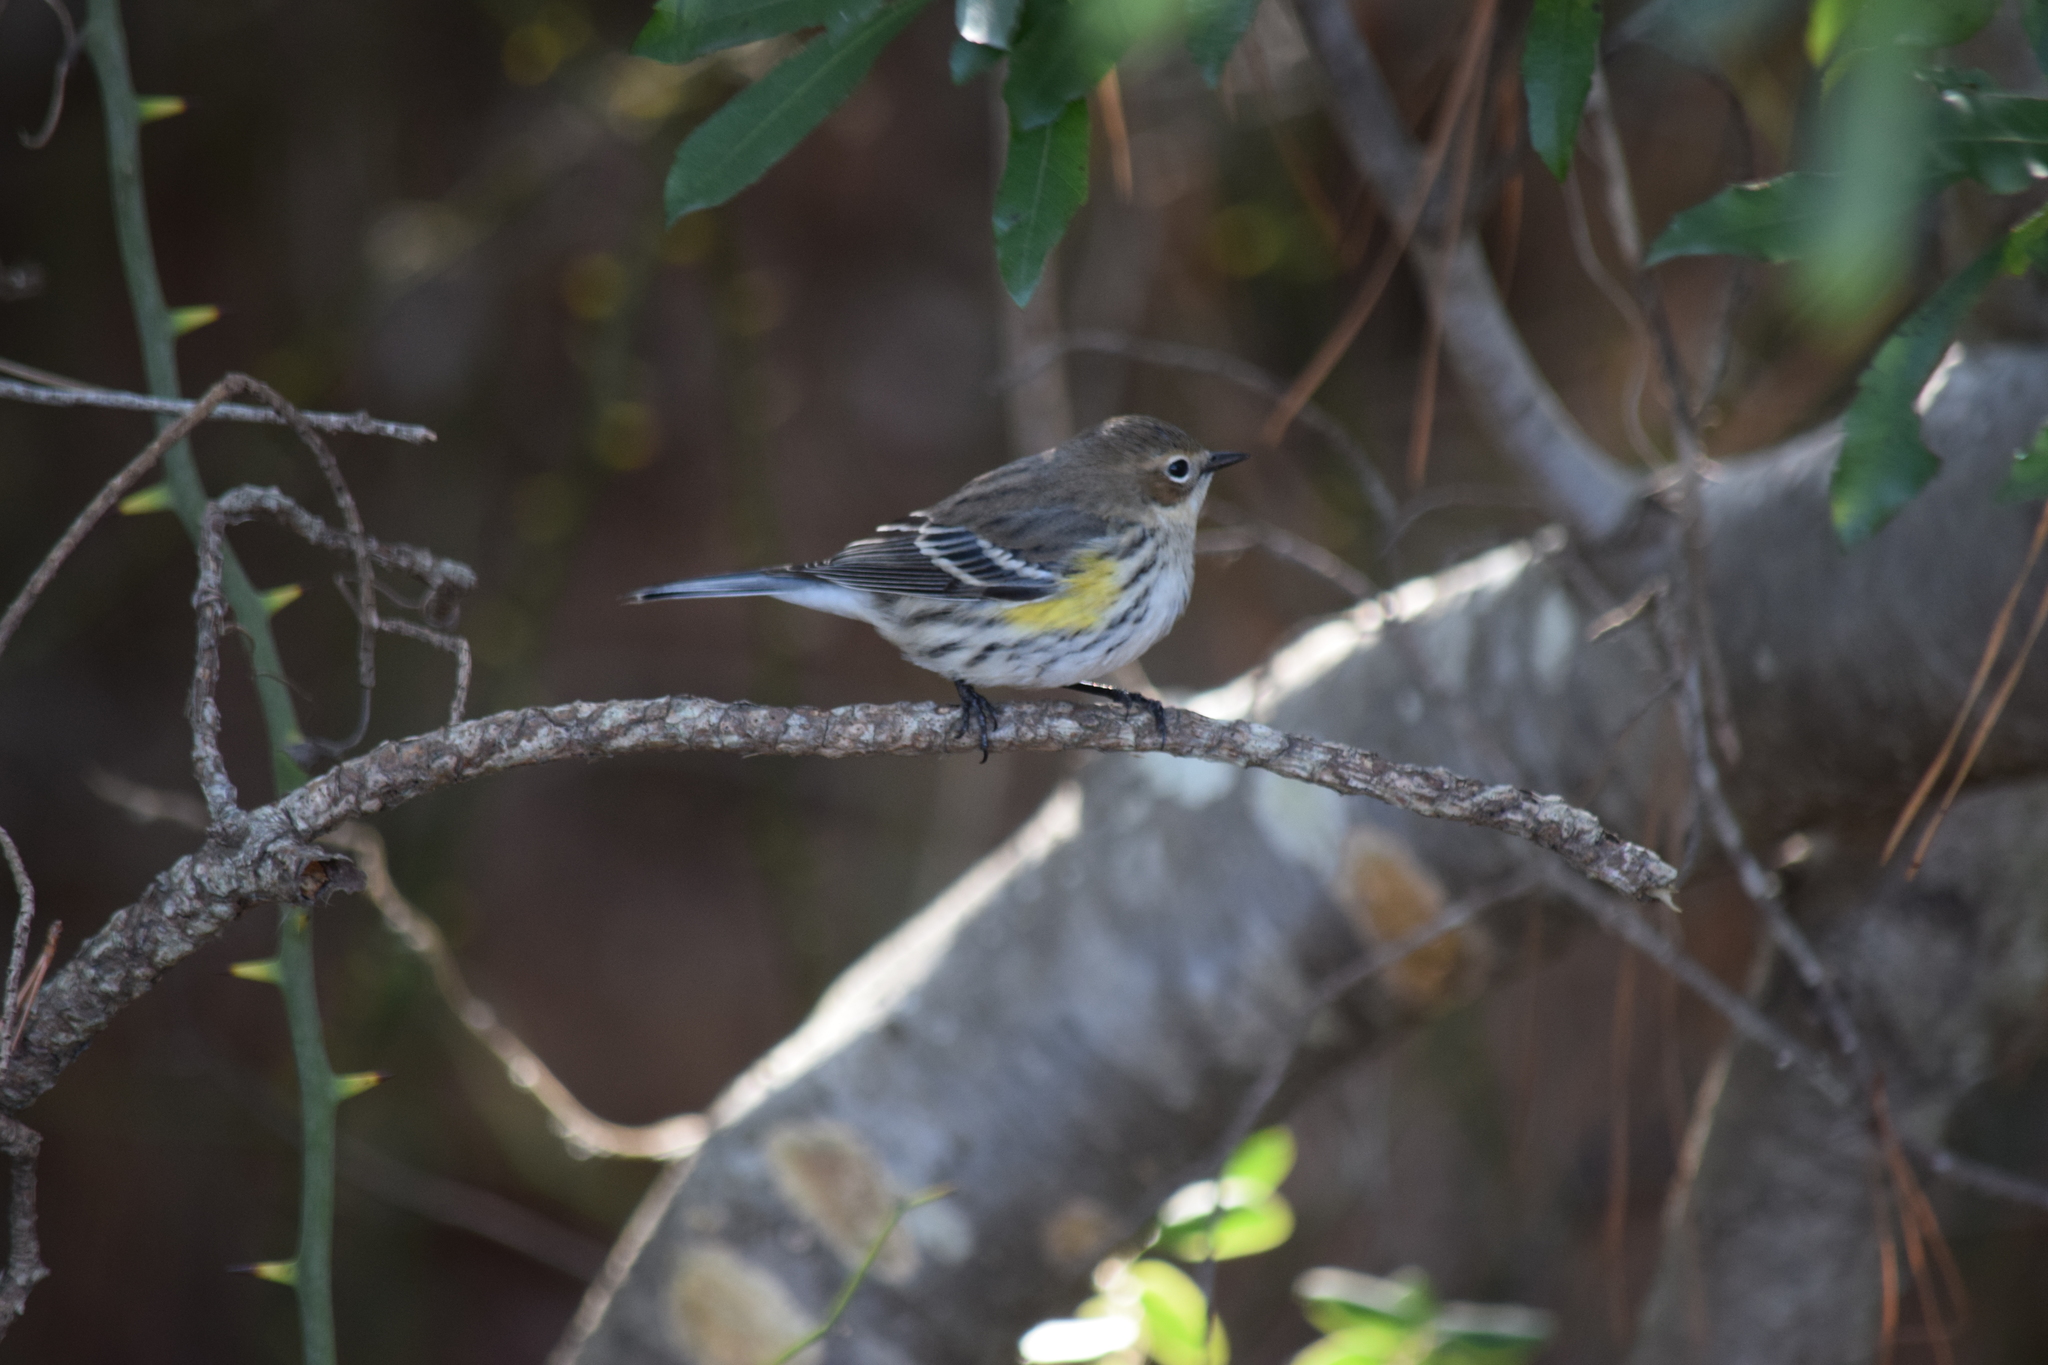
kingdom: Animalia
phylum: Chordata
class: Aves
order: Passeriformes
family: Parulidae
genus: Setophaga
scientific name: Setophaga coronata
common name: Myrtle warbler
